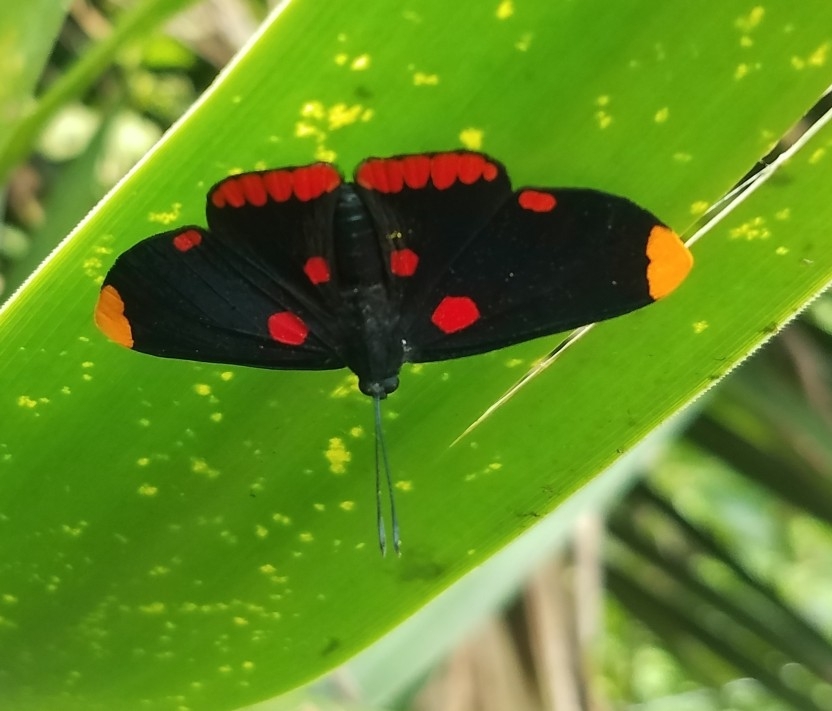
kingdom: Animalia
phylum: Arthropoda
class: Insecta
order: Lepidoptera
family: Lycaenidae
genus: Melanis
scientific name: Melanis pixe
